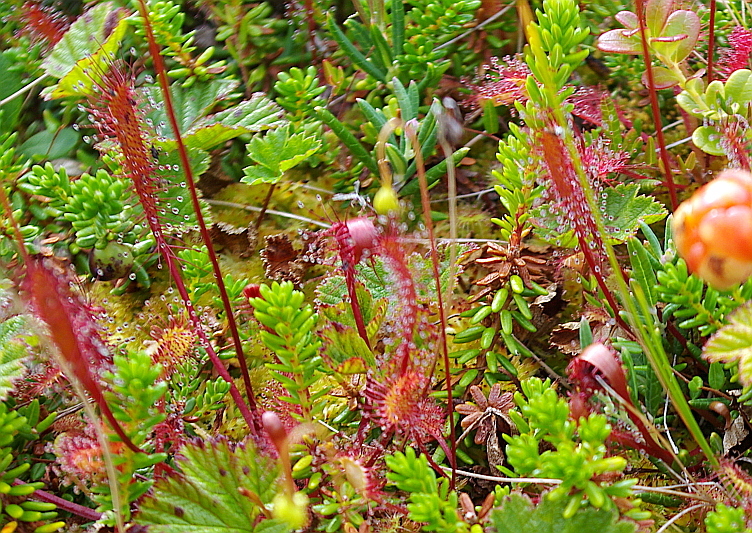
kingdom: Plantae
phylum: Tracheophyta
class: Magnoliopsida
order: Caryophyllales
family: Droseraceae
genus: Drosera
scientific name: Drosera anglica
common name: Great sundew
